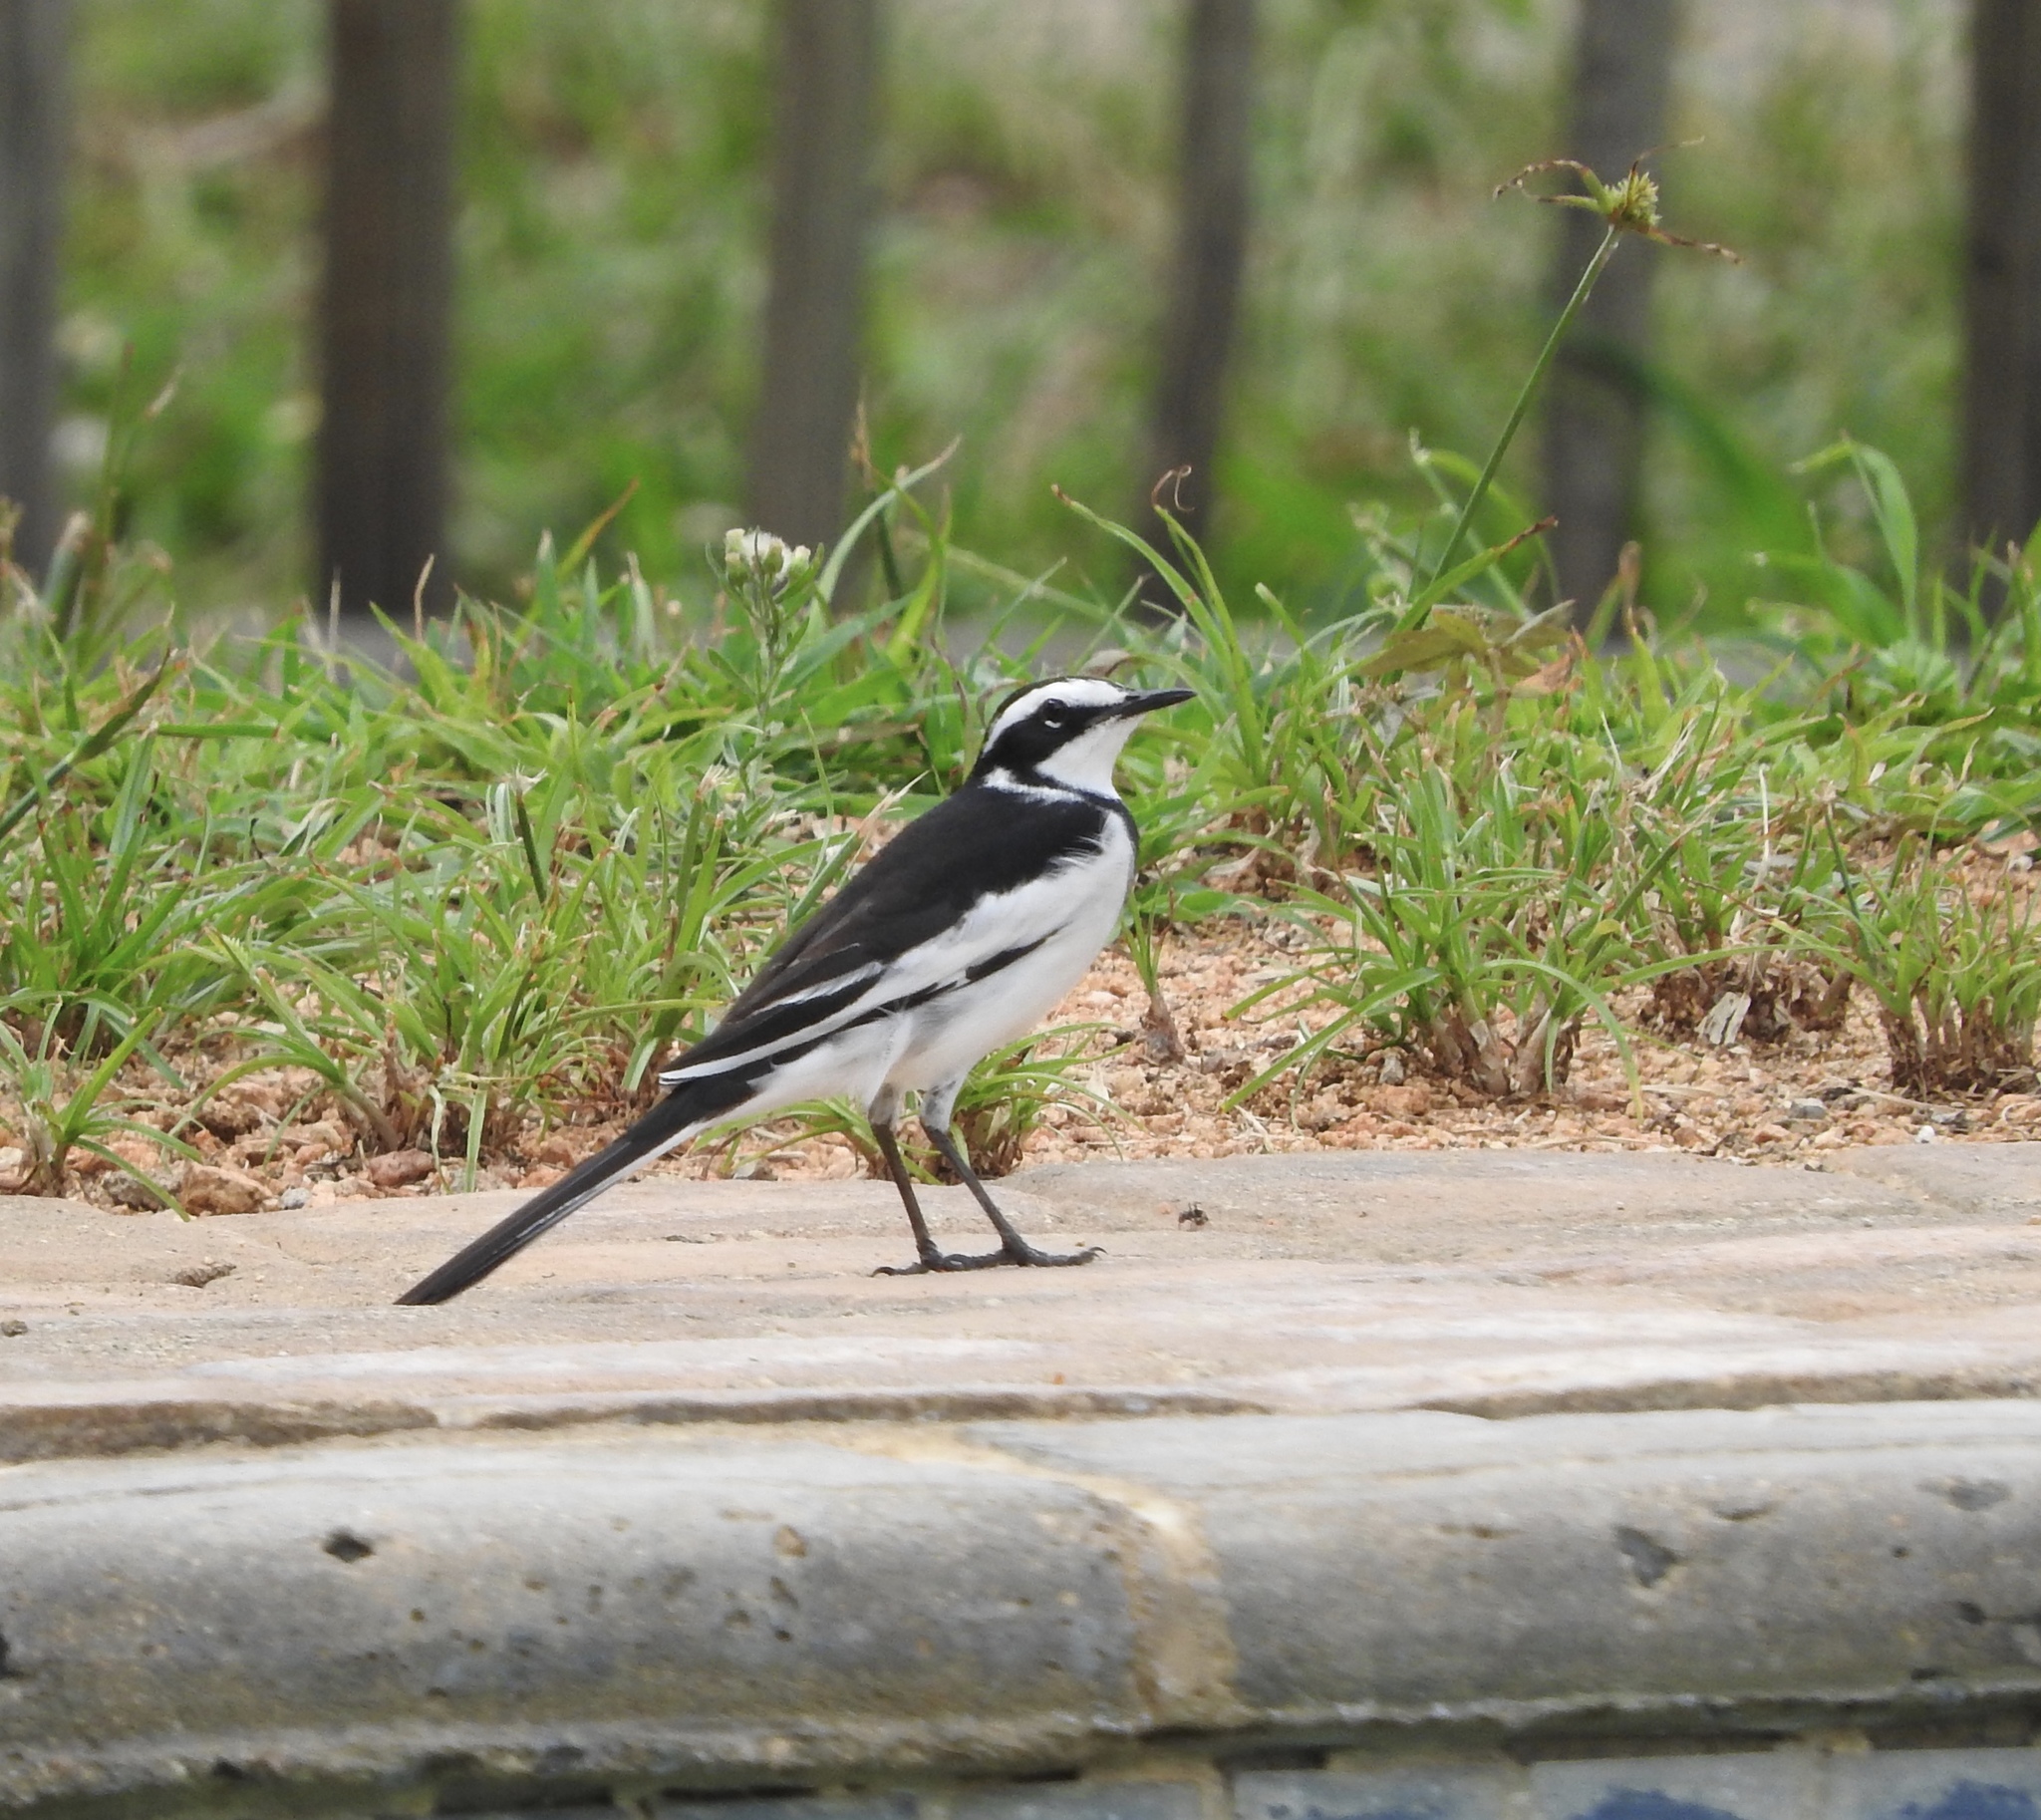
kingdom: Animalia
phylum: Chordata
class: Aves
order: Passeriformes
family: Motacillidae
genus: Motacilla
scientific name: Motacilla aguimp
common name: African pied wagtail
